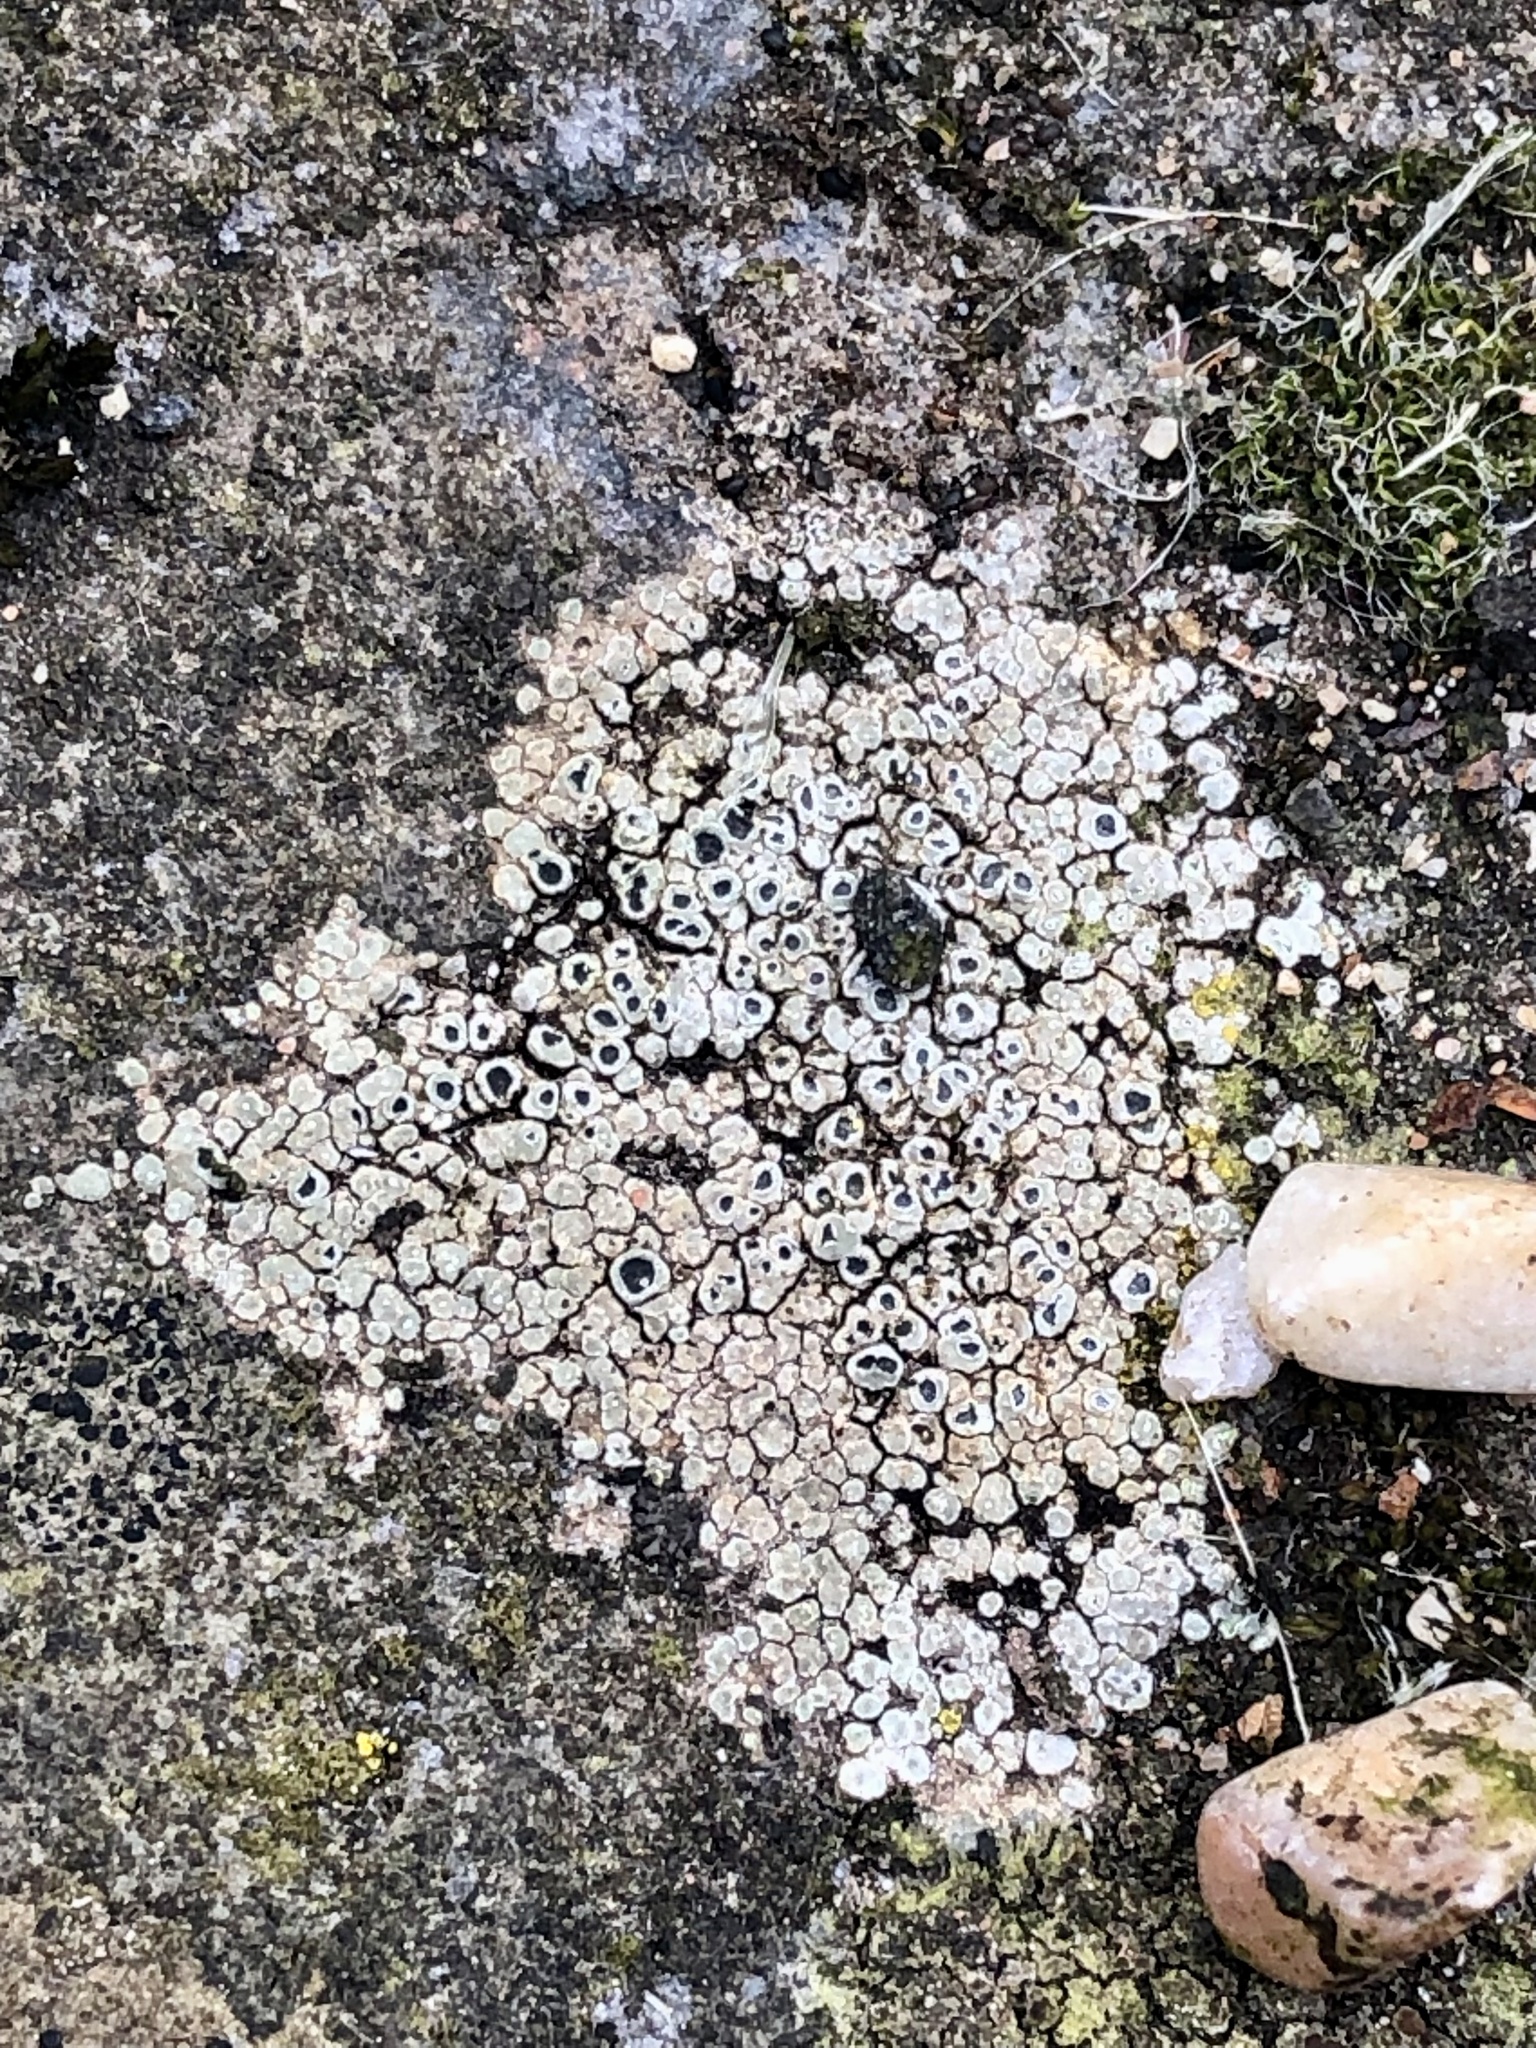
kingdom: Fungi
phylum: Ascomycota
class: Lecanoromycetes
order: Pertusariales
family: Megasporaceae
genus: Circinaria
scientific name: Circinaria contorta
